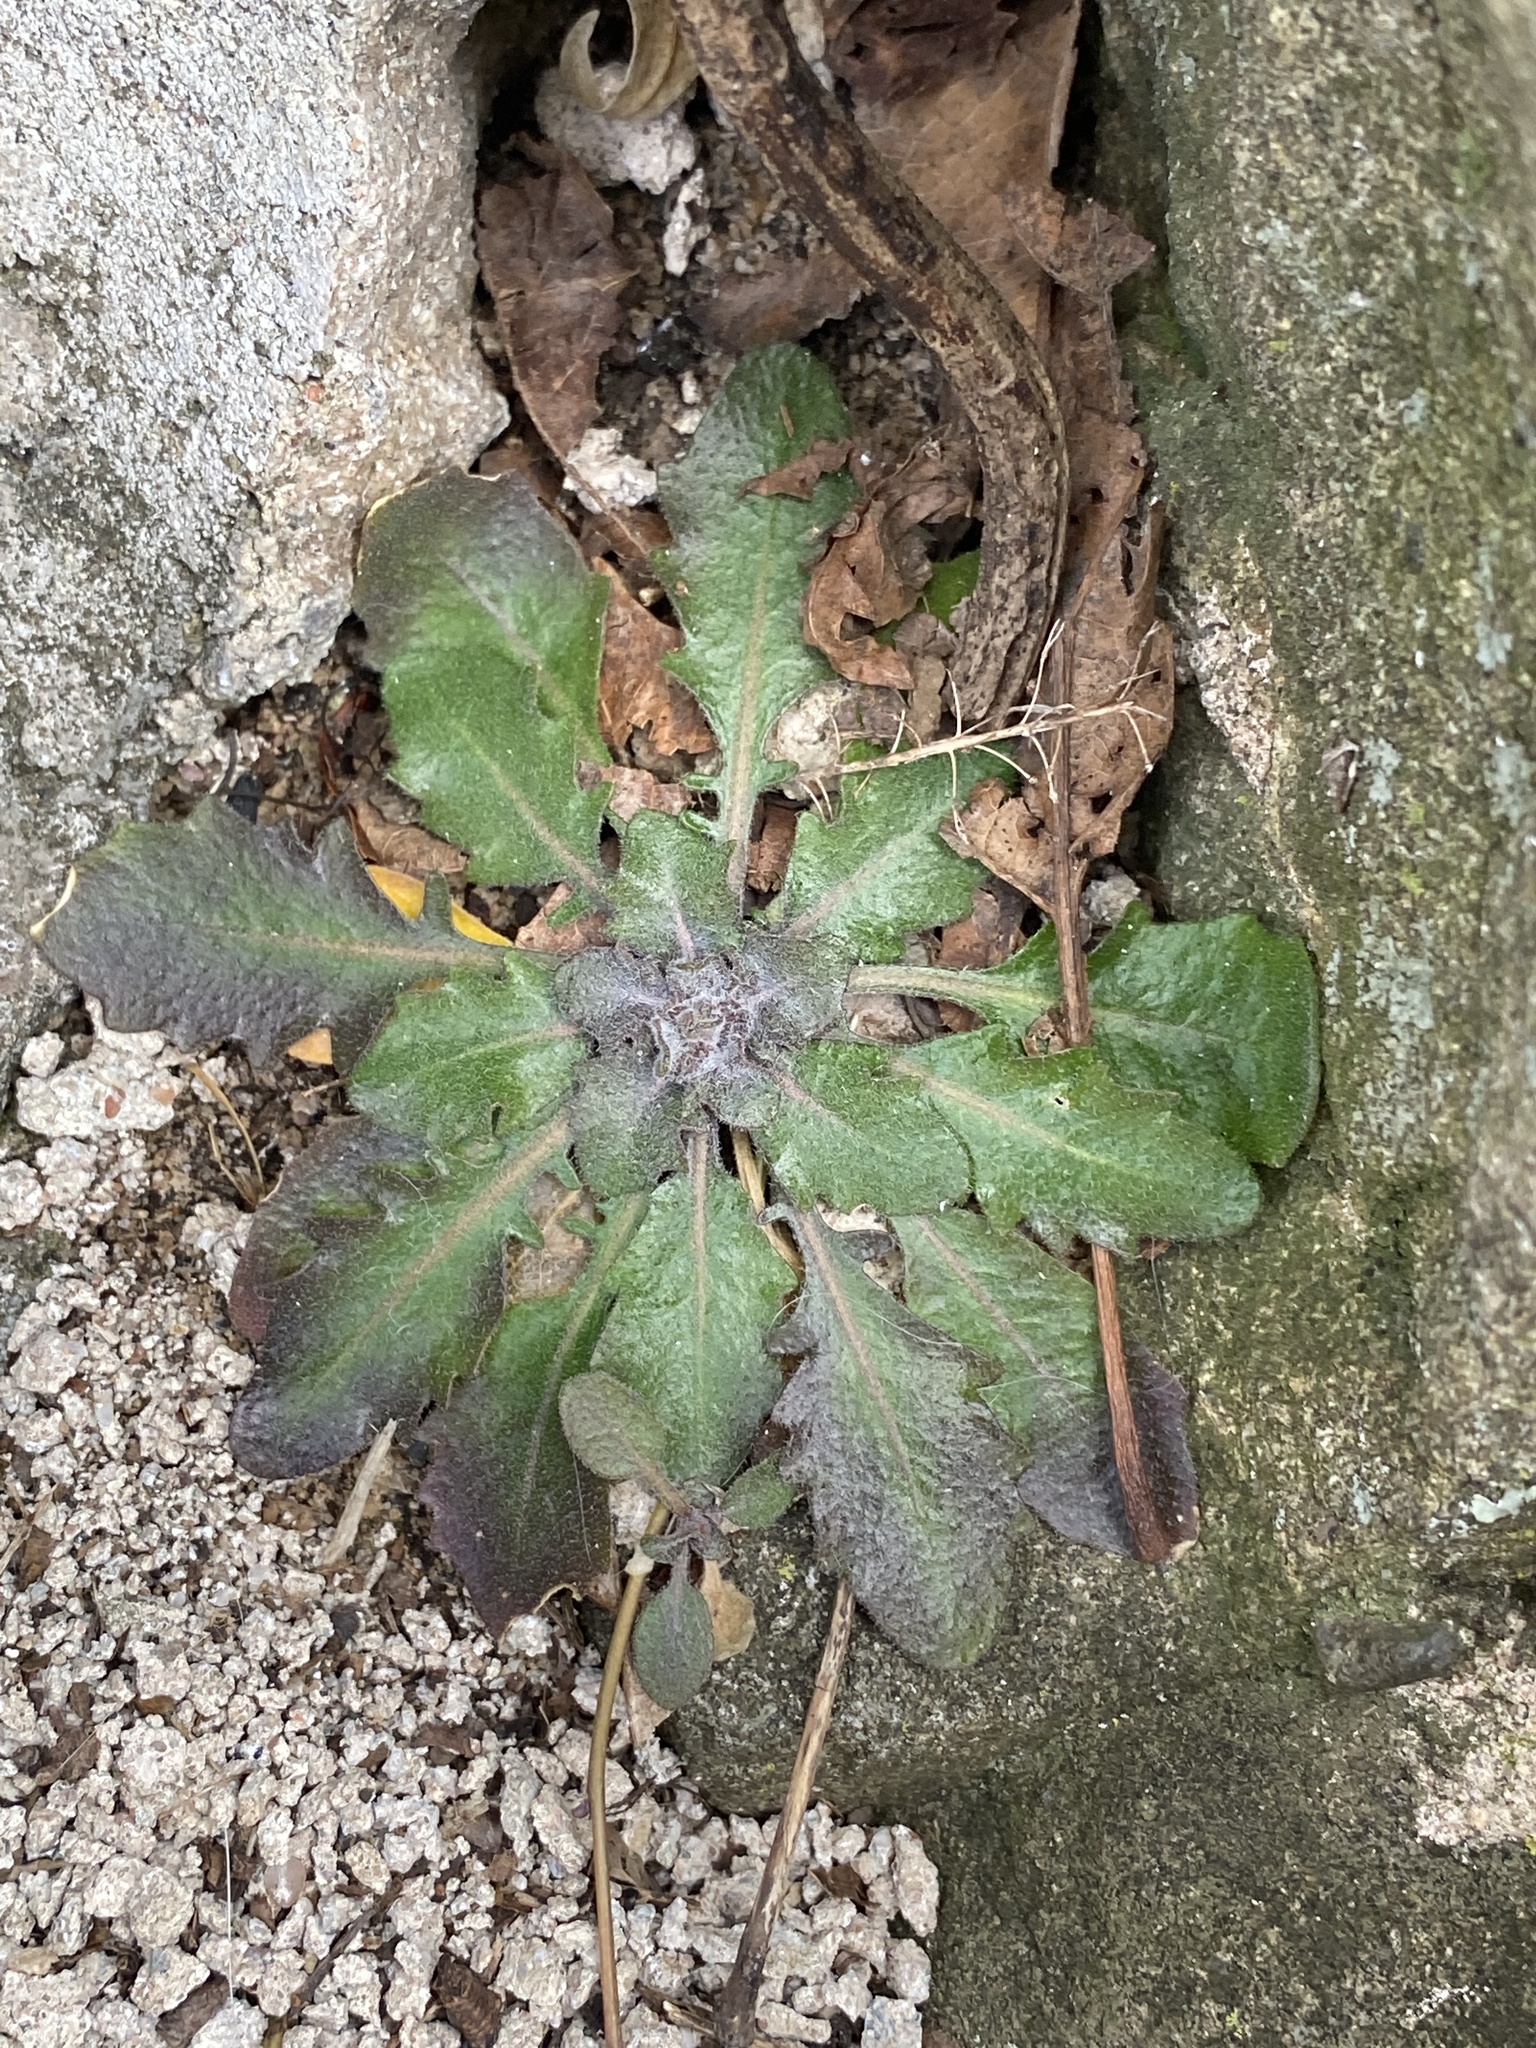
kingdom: Plantae
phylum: Tracheophyta
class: Magnoliopsida
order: Brassicales
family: Brassicaceae
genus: Arabidopsis
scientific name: Arabidopsis lyrata
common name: Lyrate rockcress
